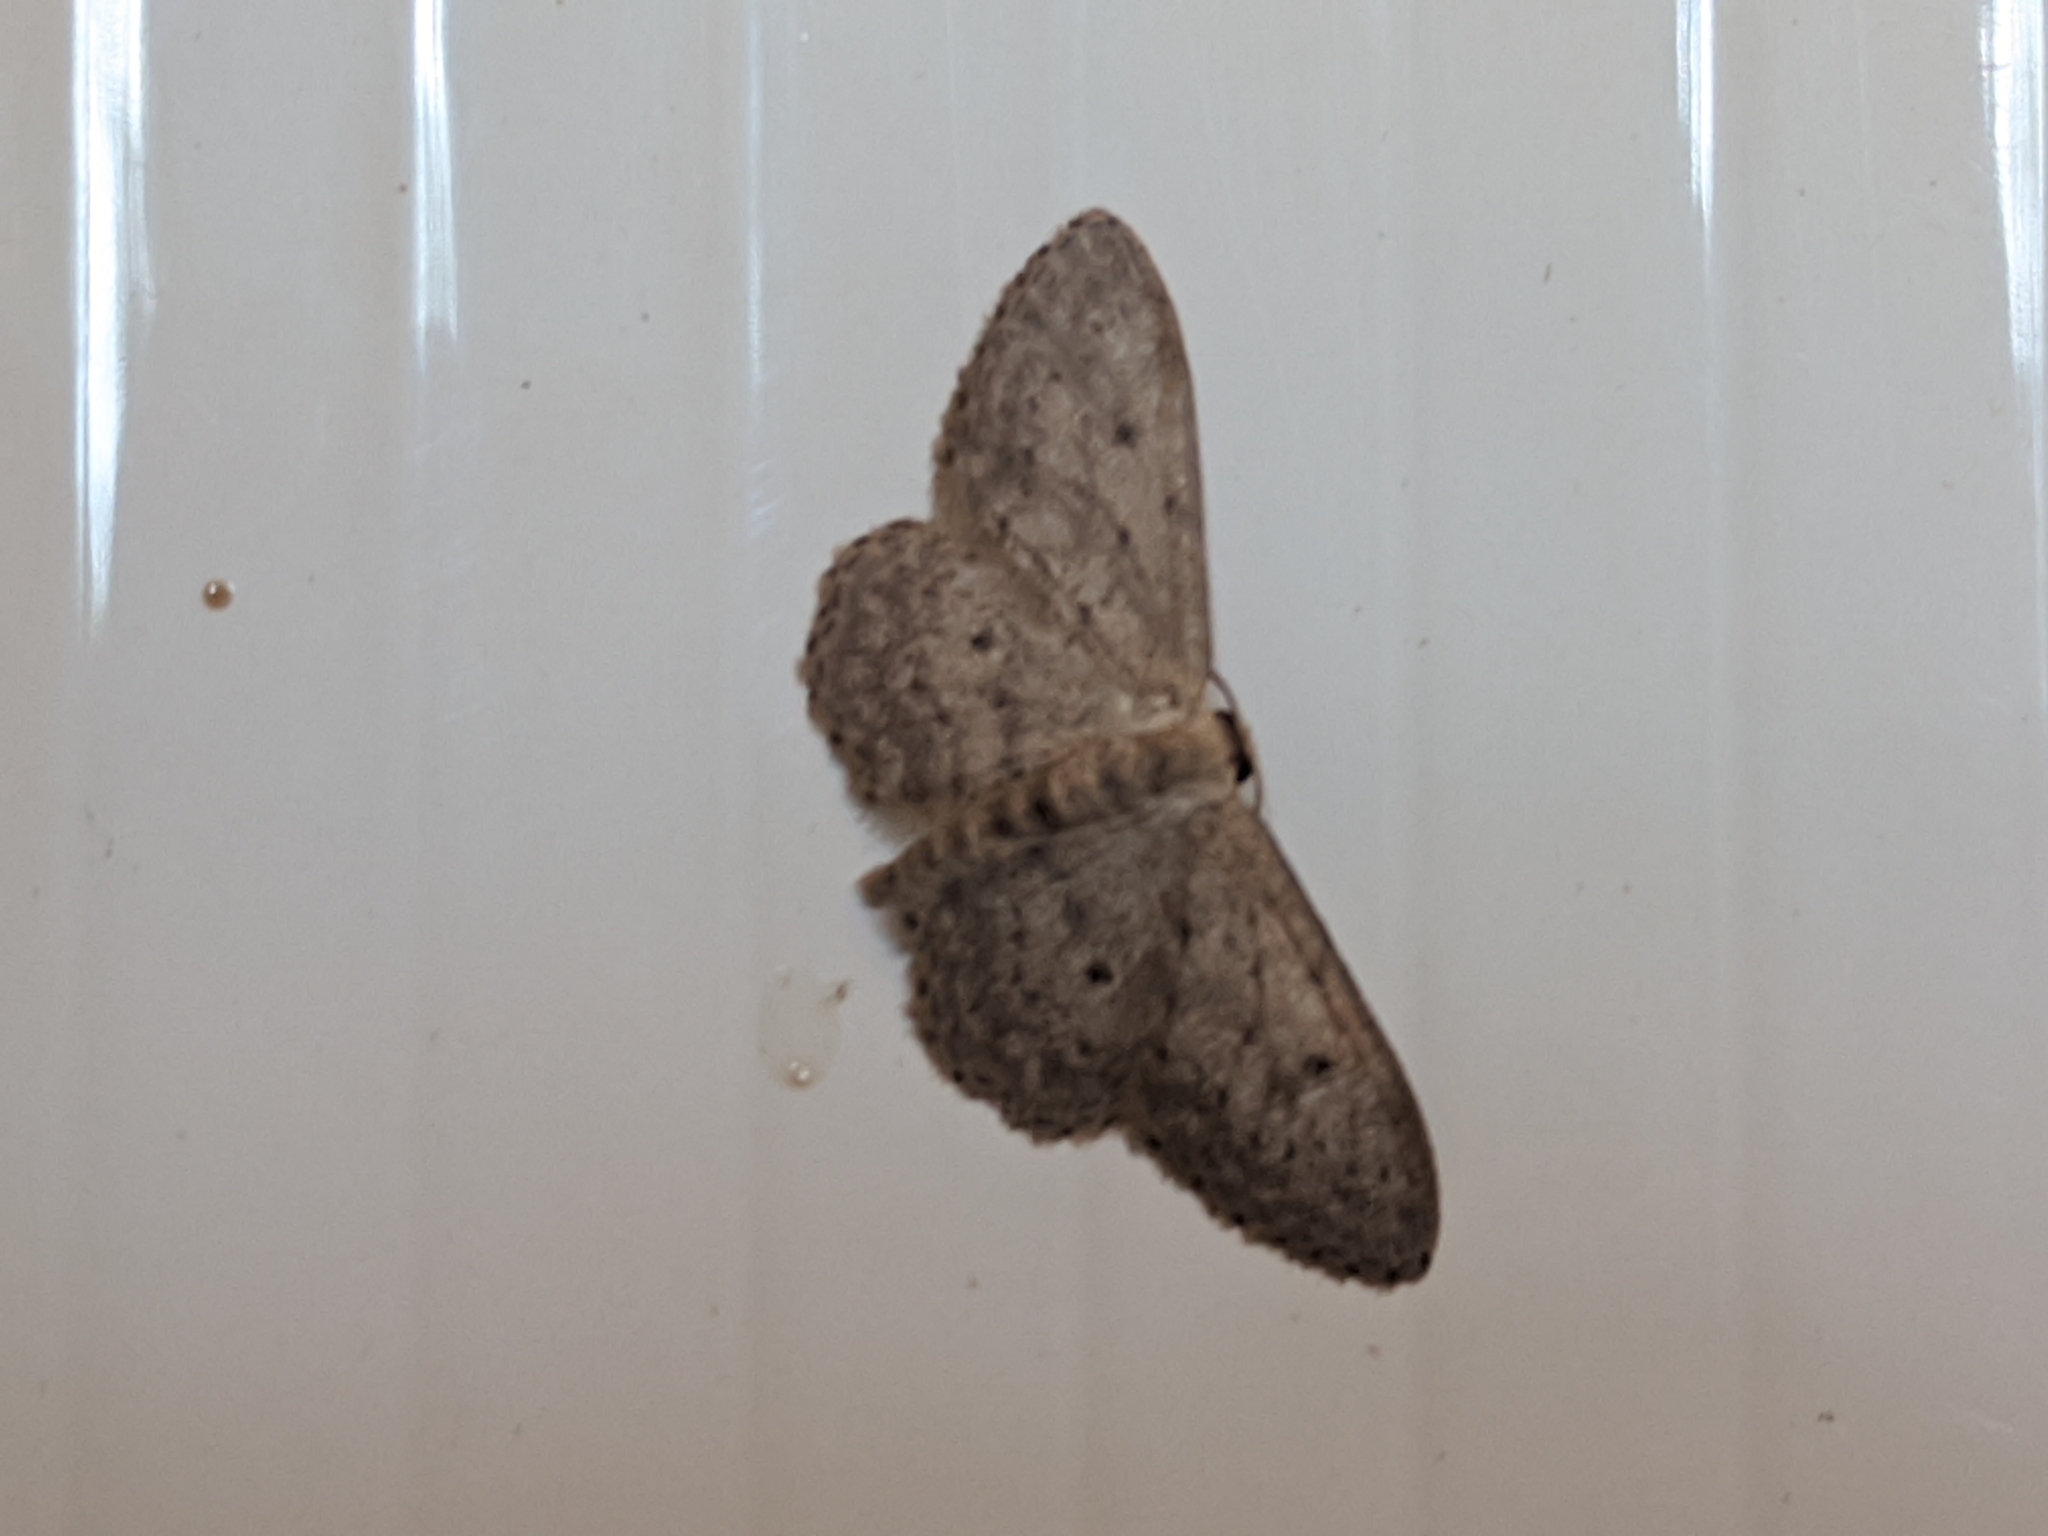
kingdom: Animalia
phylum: Arthropoda
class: Insecta
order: Lepidoptera
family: Geometridae
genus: Idaea
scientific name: Idaea seriata
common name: Small dusty wave
